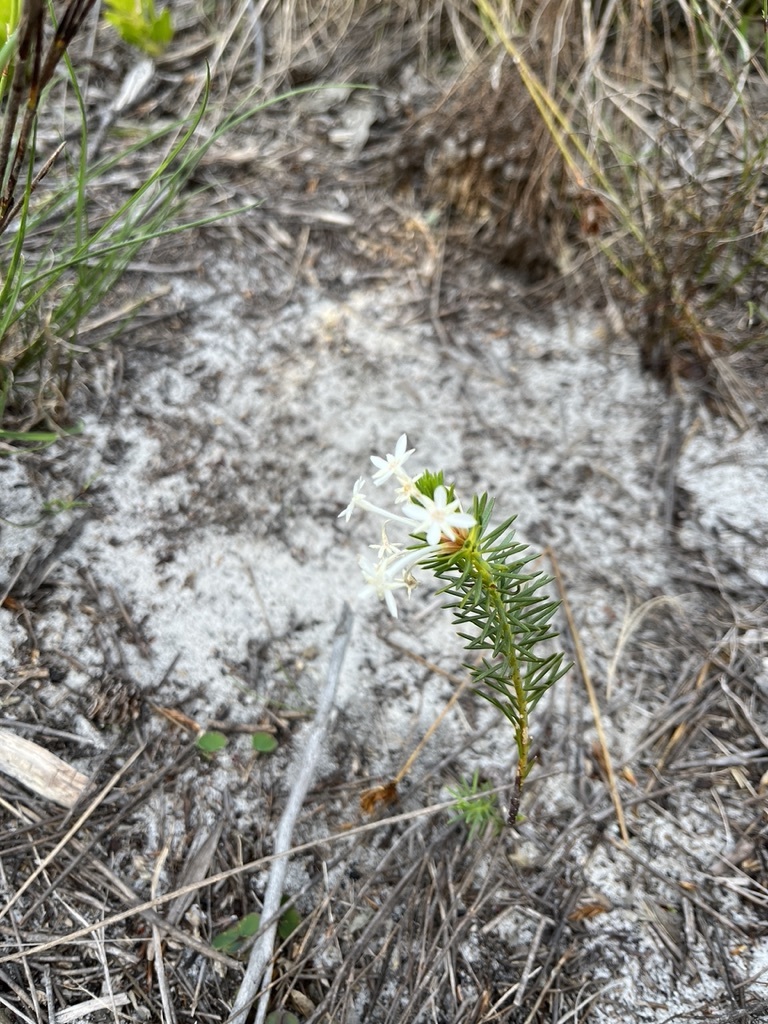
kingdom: Plantae
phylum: Tracheophyta
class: Magnoliopsida
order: Malvales
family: Thymelaeaceae
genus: Gnidia
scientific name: Gnidia pinifolia
